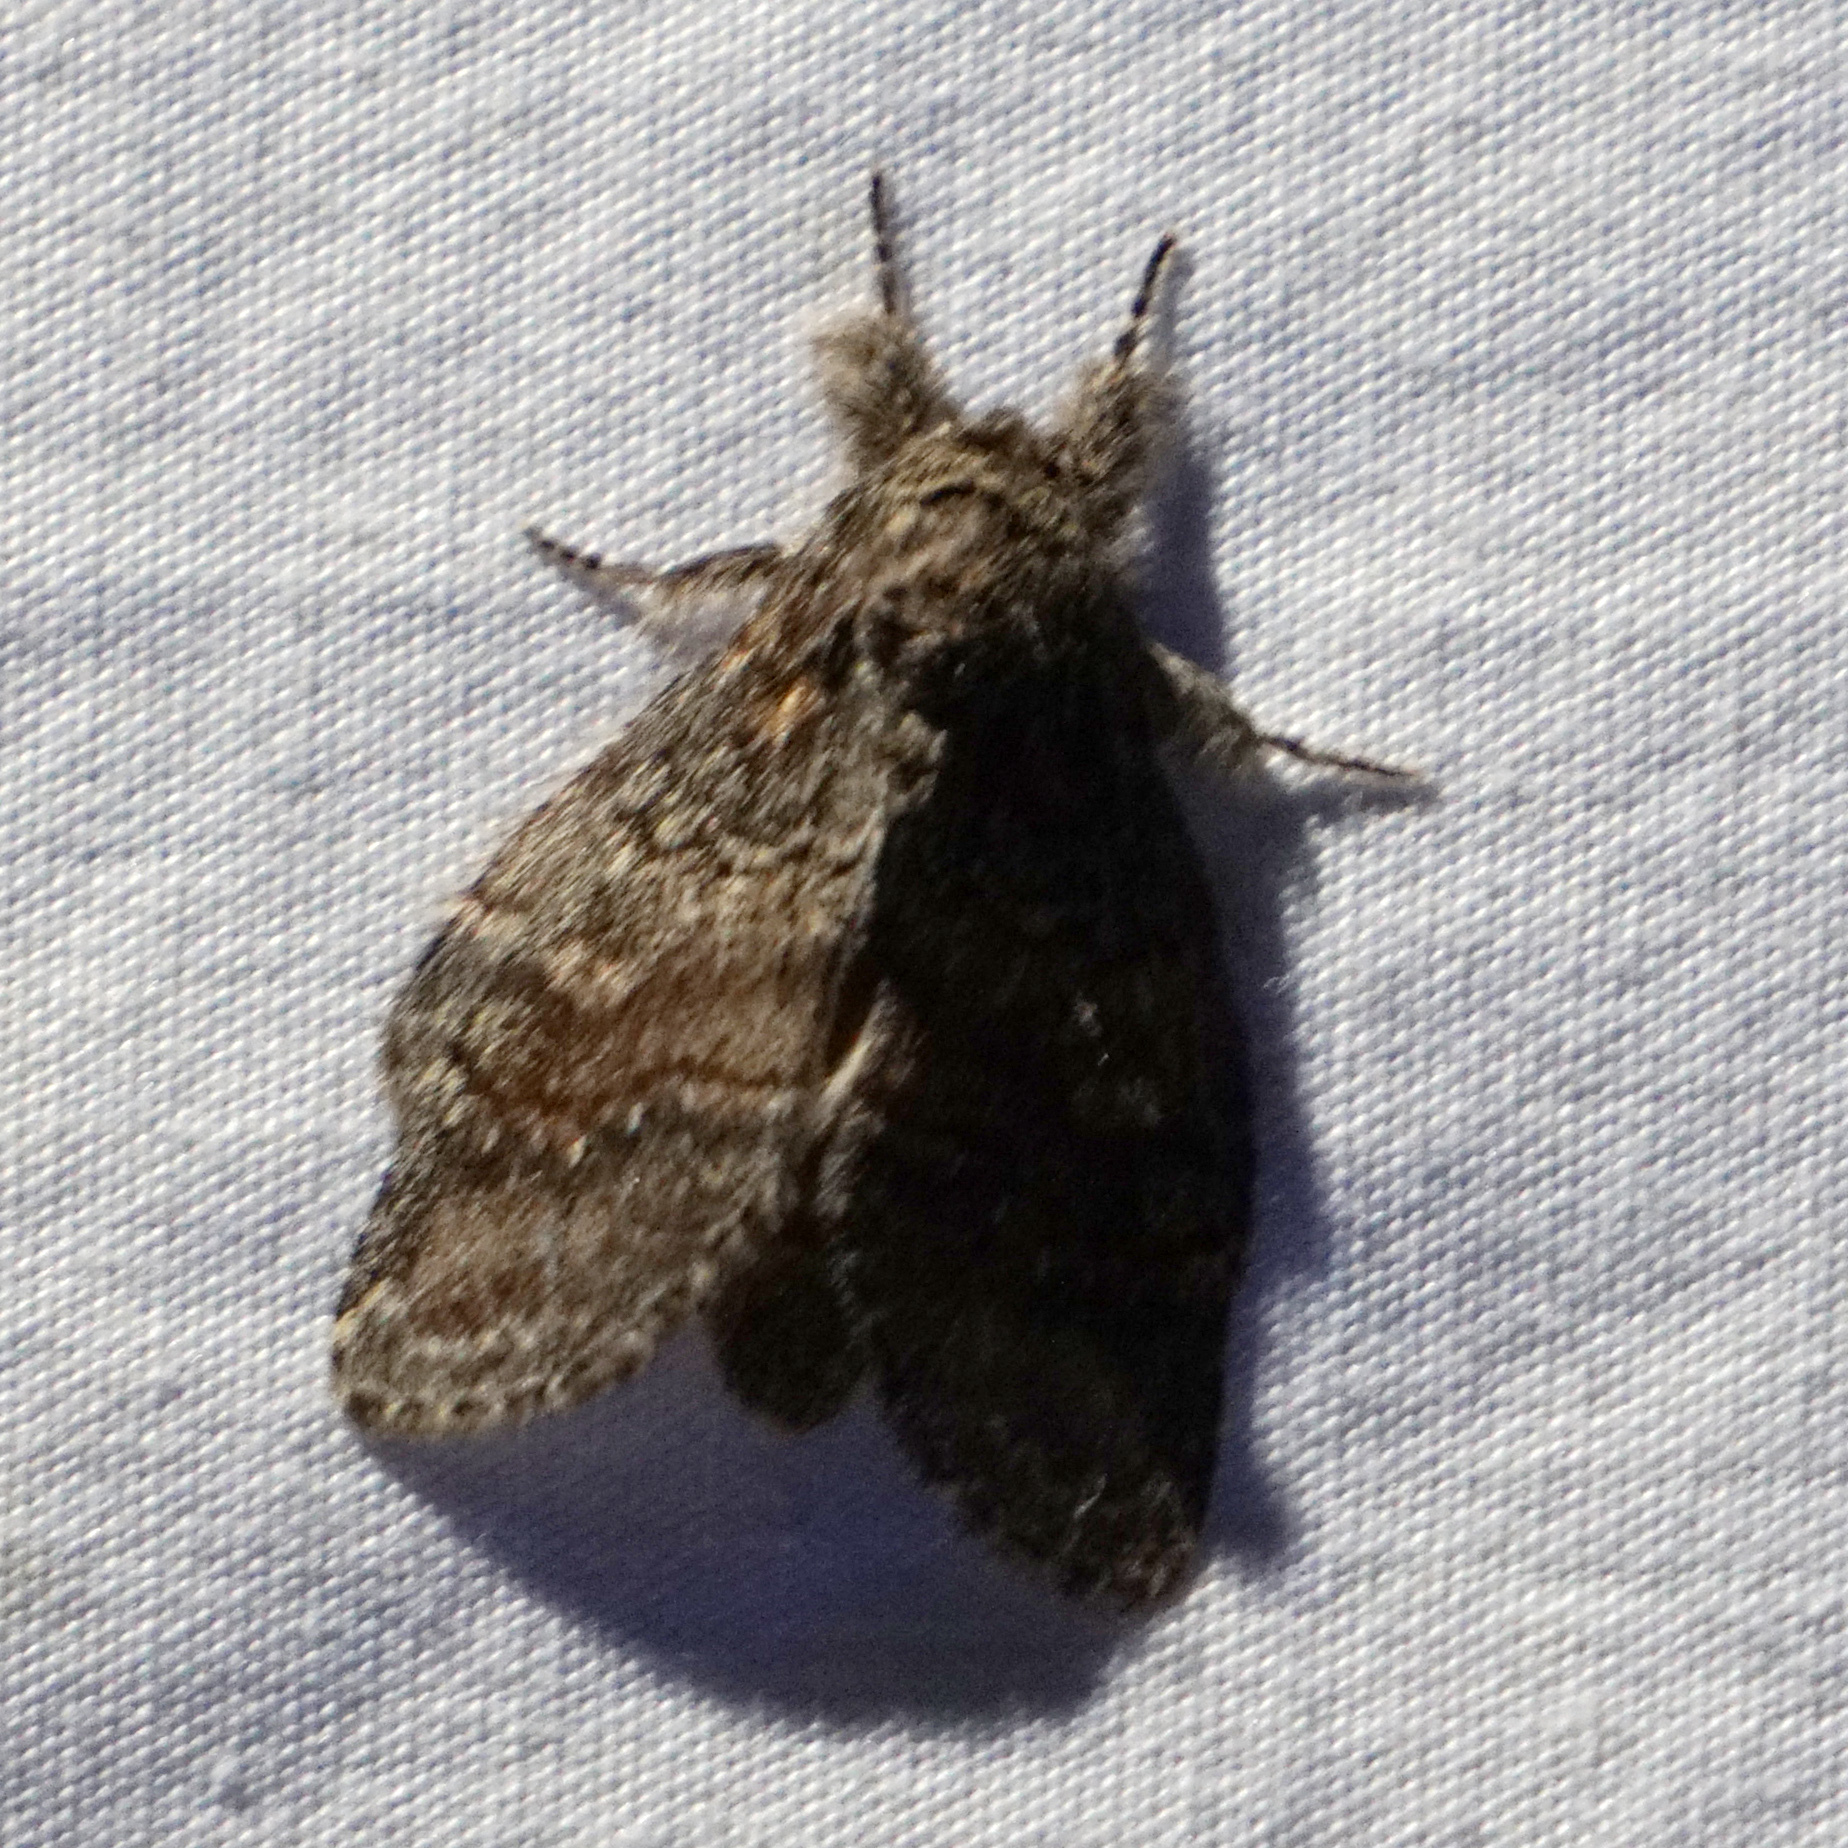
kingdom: Animalia
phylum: Arthropoda
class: Insecta
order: Lepidoptera
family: Notodontidae
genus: Peridea
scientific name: Peridea
